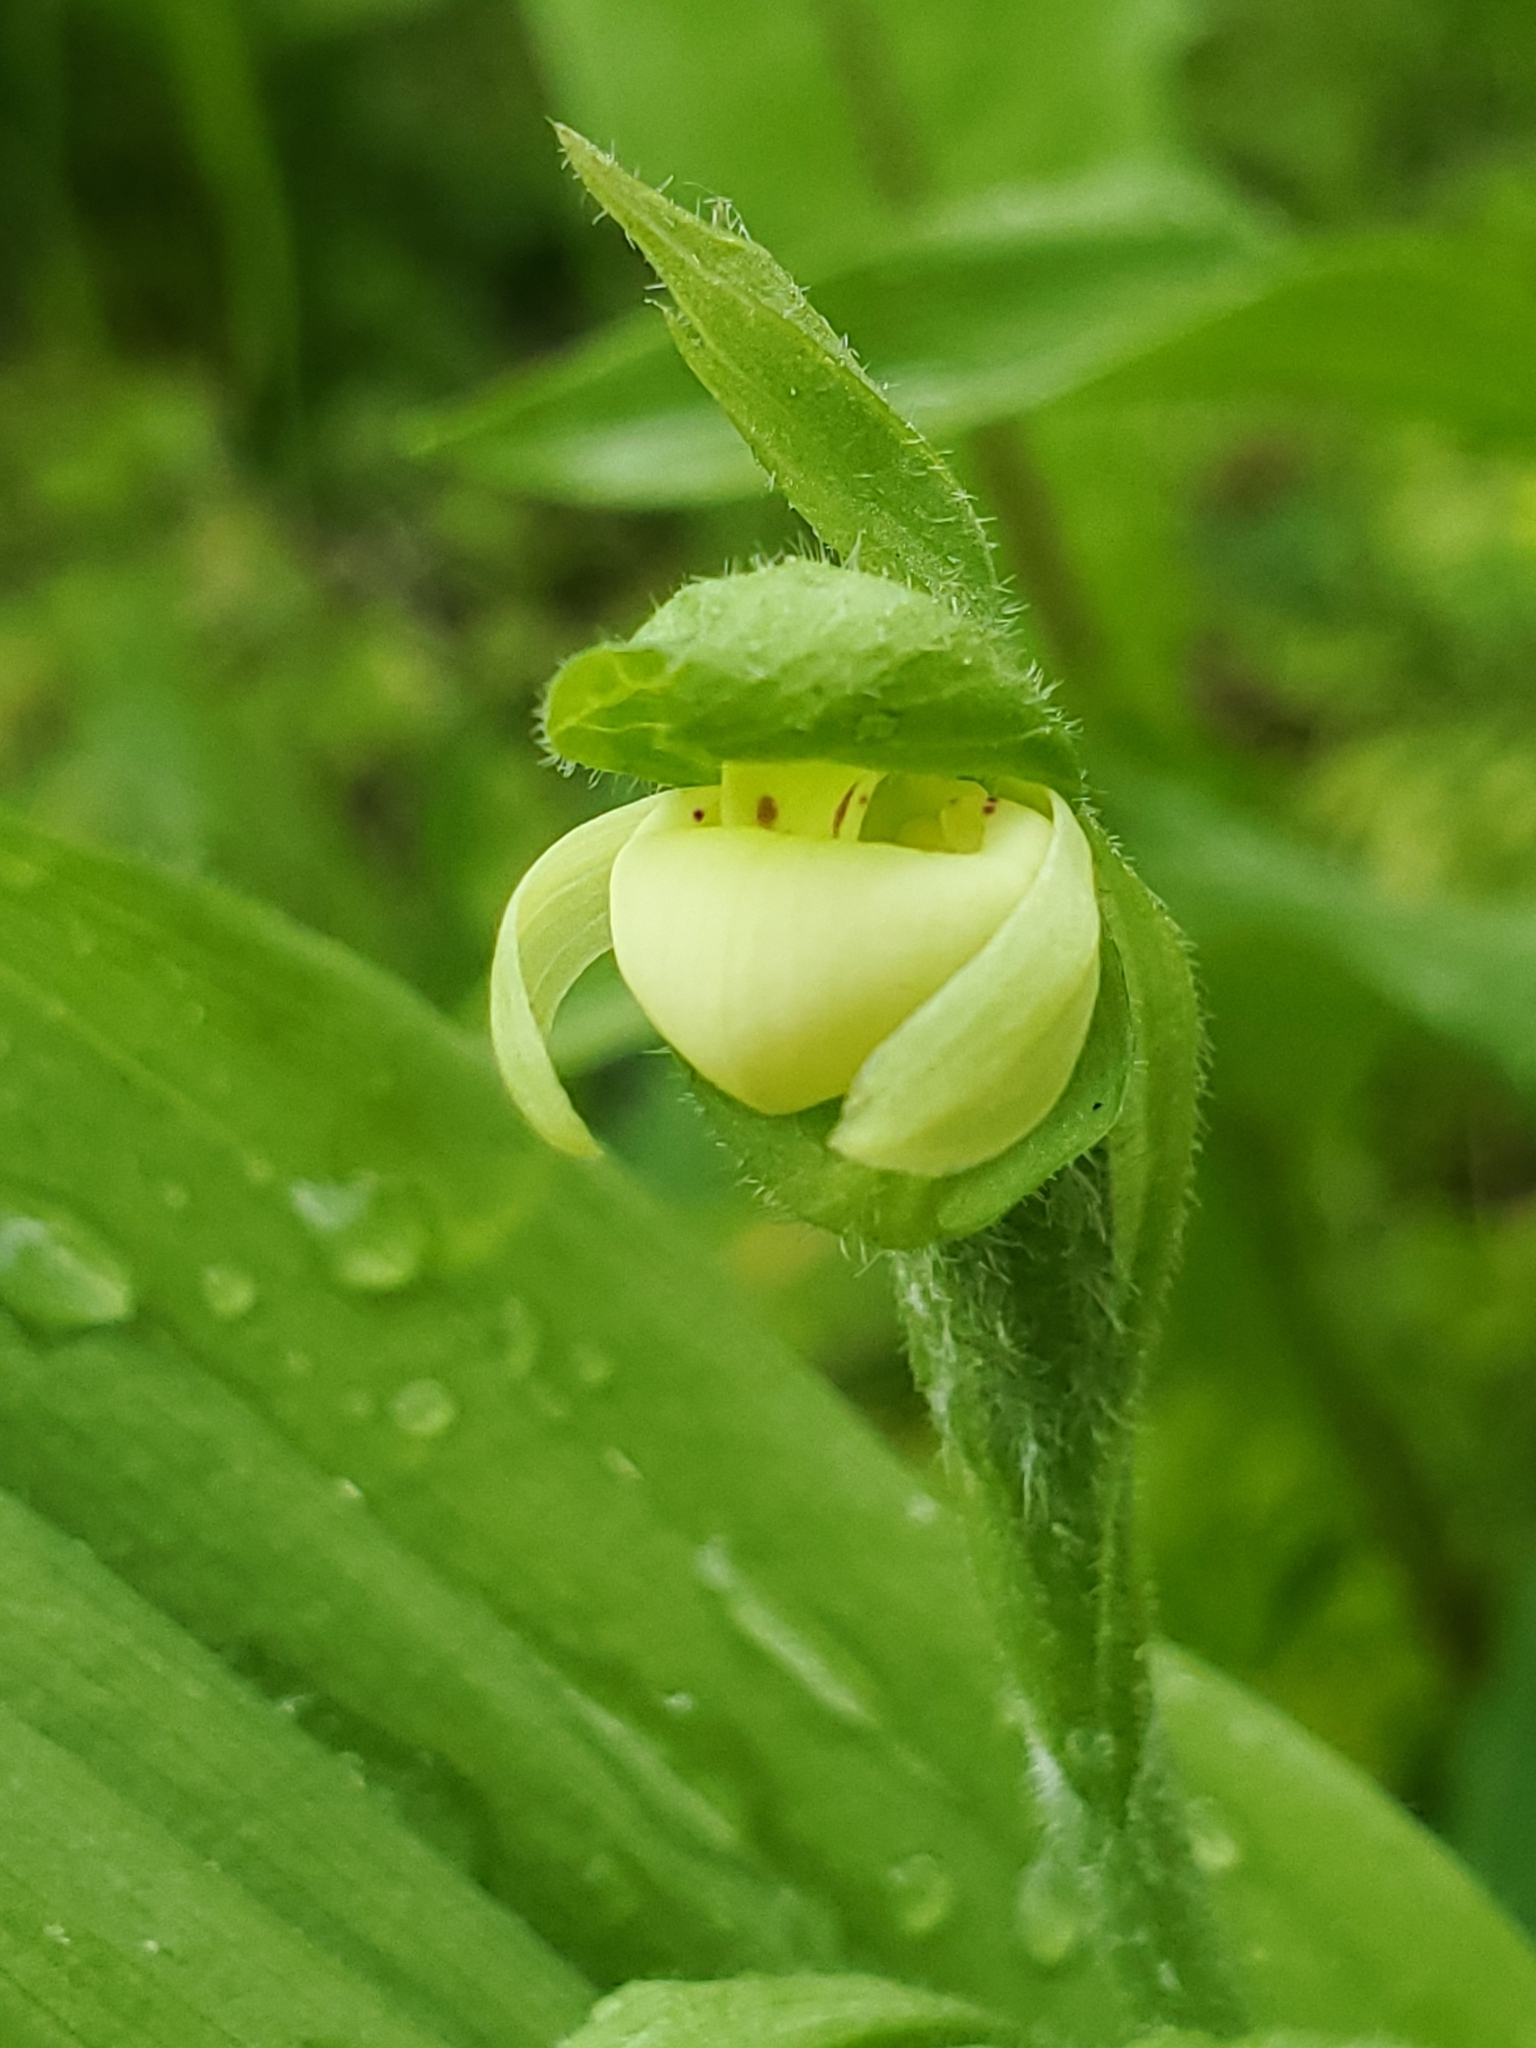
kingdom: Plantae
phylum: Tracheophyta
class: Liliopsida
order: Asparagales
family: Orchidaceae
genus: Cypripedium
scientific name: Cypripedium passerinum
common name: Sparrow's-egg lady's-slipper
